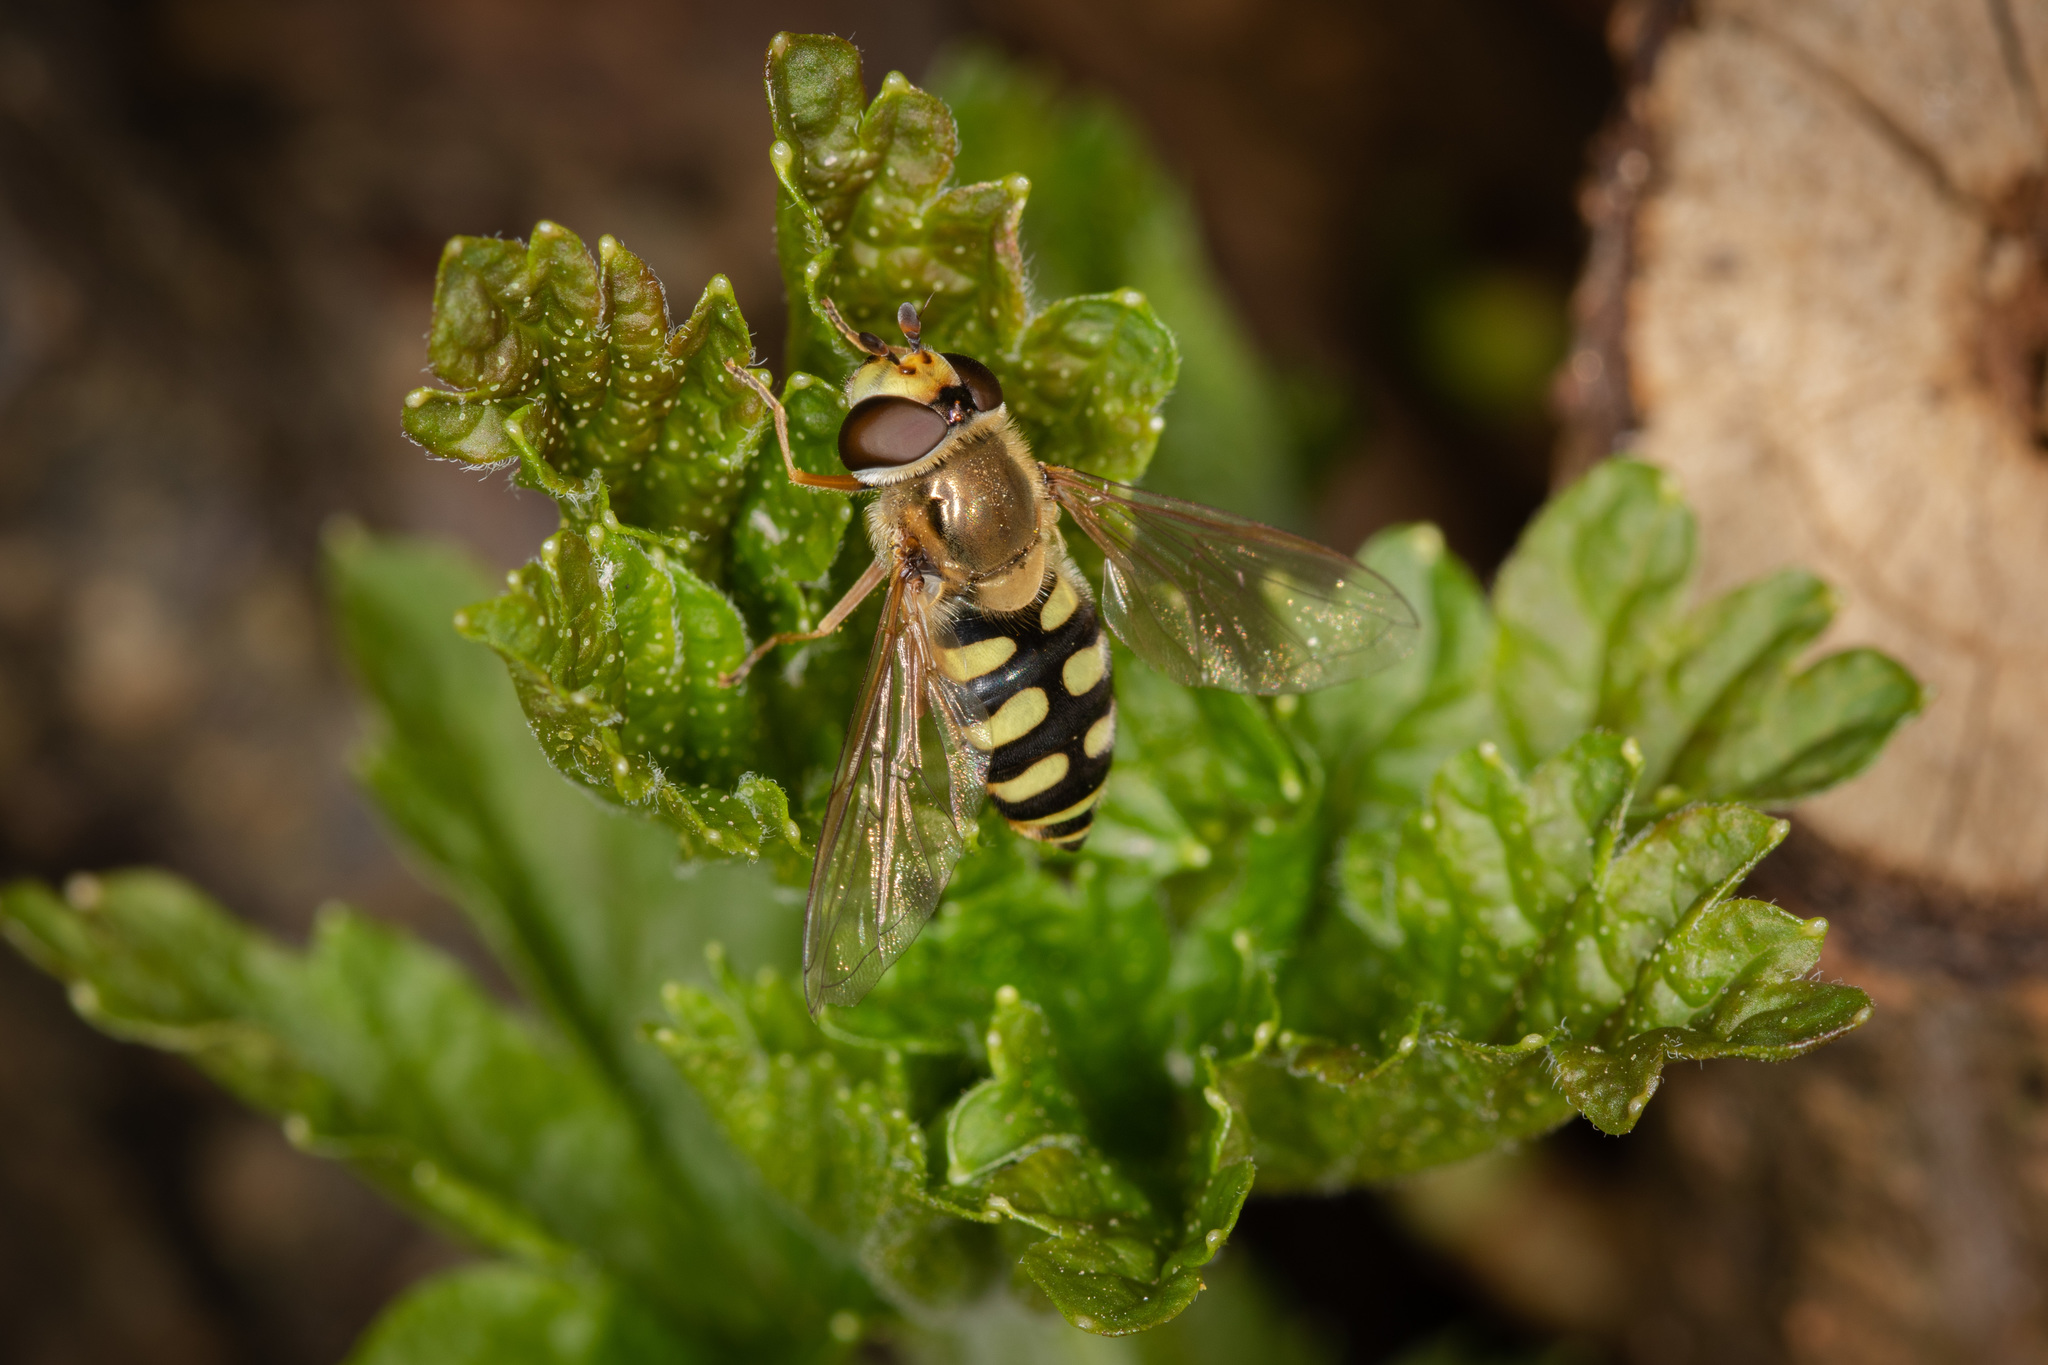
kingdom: Animalia
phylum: Arthropoda
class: Insecta
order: Diptera
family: Syrphidae
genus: Eupeodes
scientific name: Eupeodes corollae
